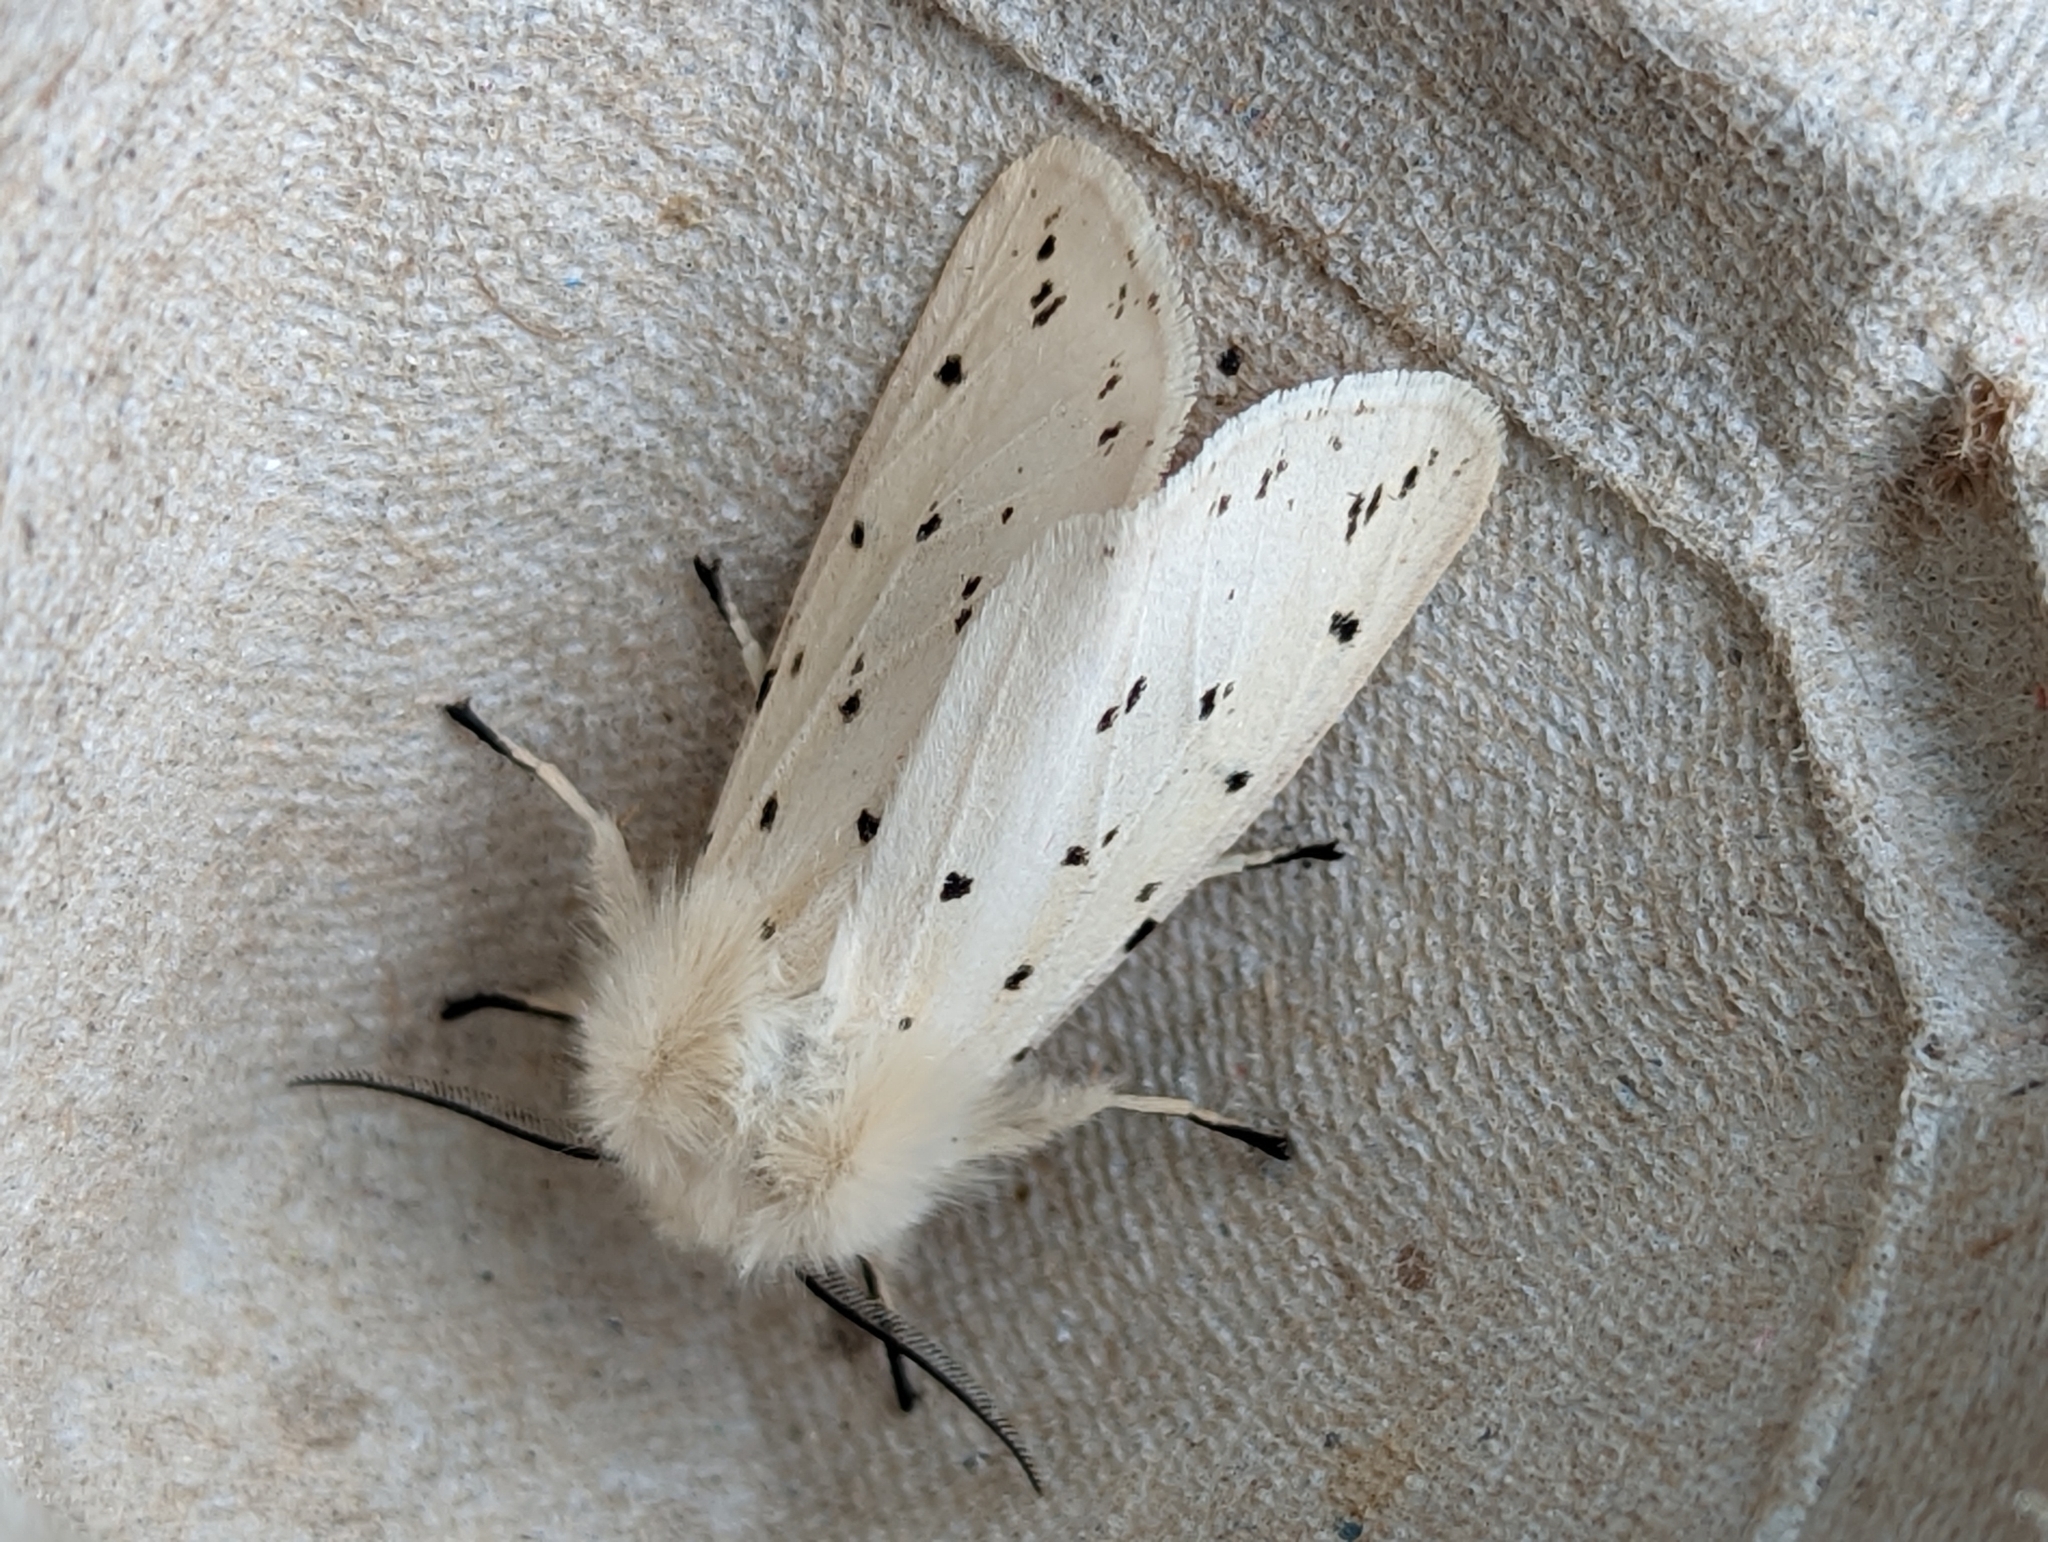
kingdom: Animalia
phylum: Arthropoda
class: Insecta
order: Lepidoptera
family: Erebidae
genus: Spilosoma
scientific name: Spilosoma lubricipeda
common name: White ermine
